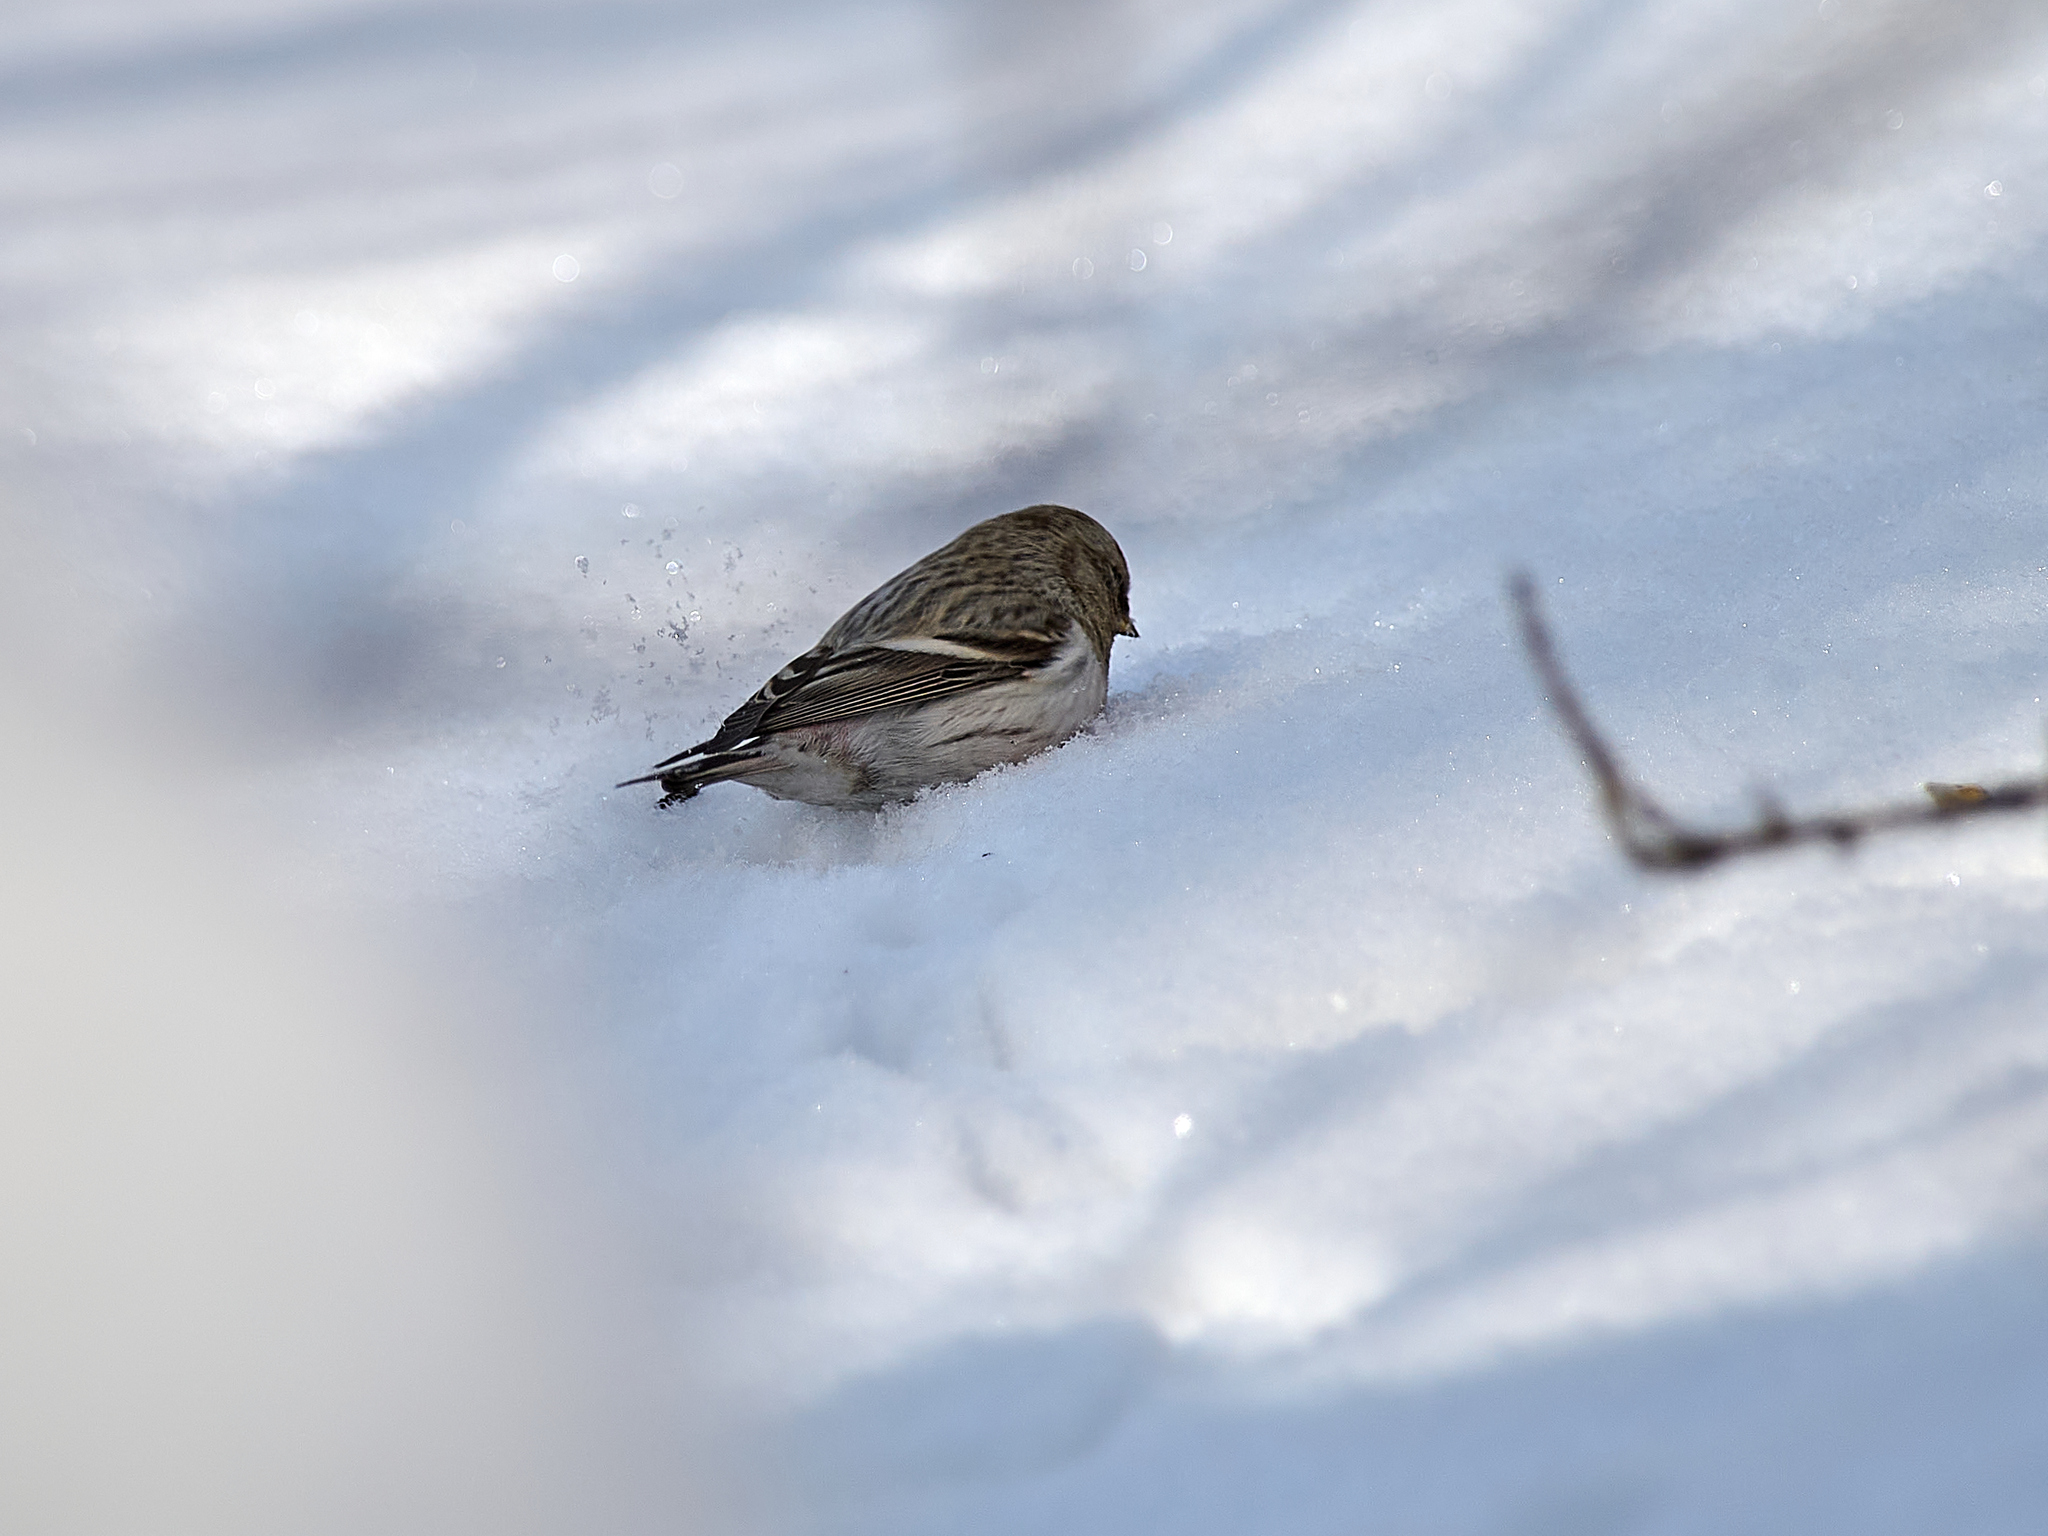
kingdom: Animalia
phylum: Chordata
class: Aves
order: Passeriformes
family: Fringillidae
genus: Acanthis
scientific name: Acanthis hornemanni
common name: Arctic redpoll
